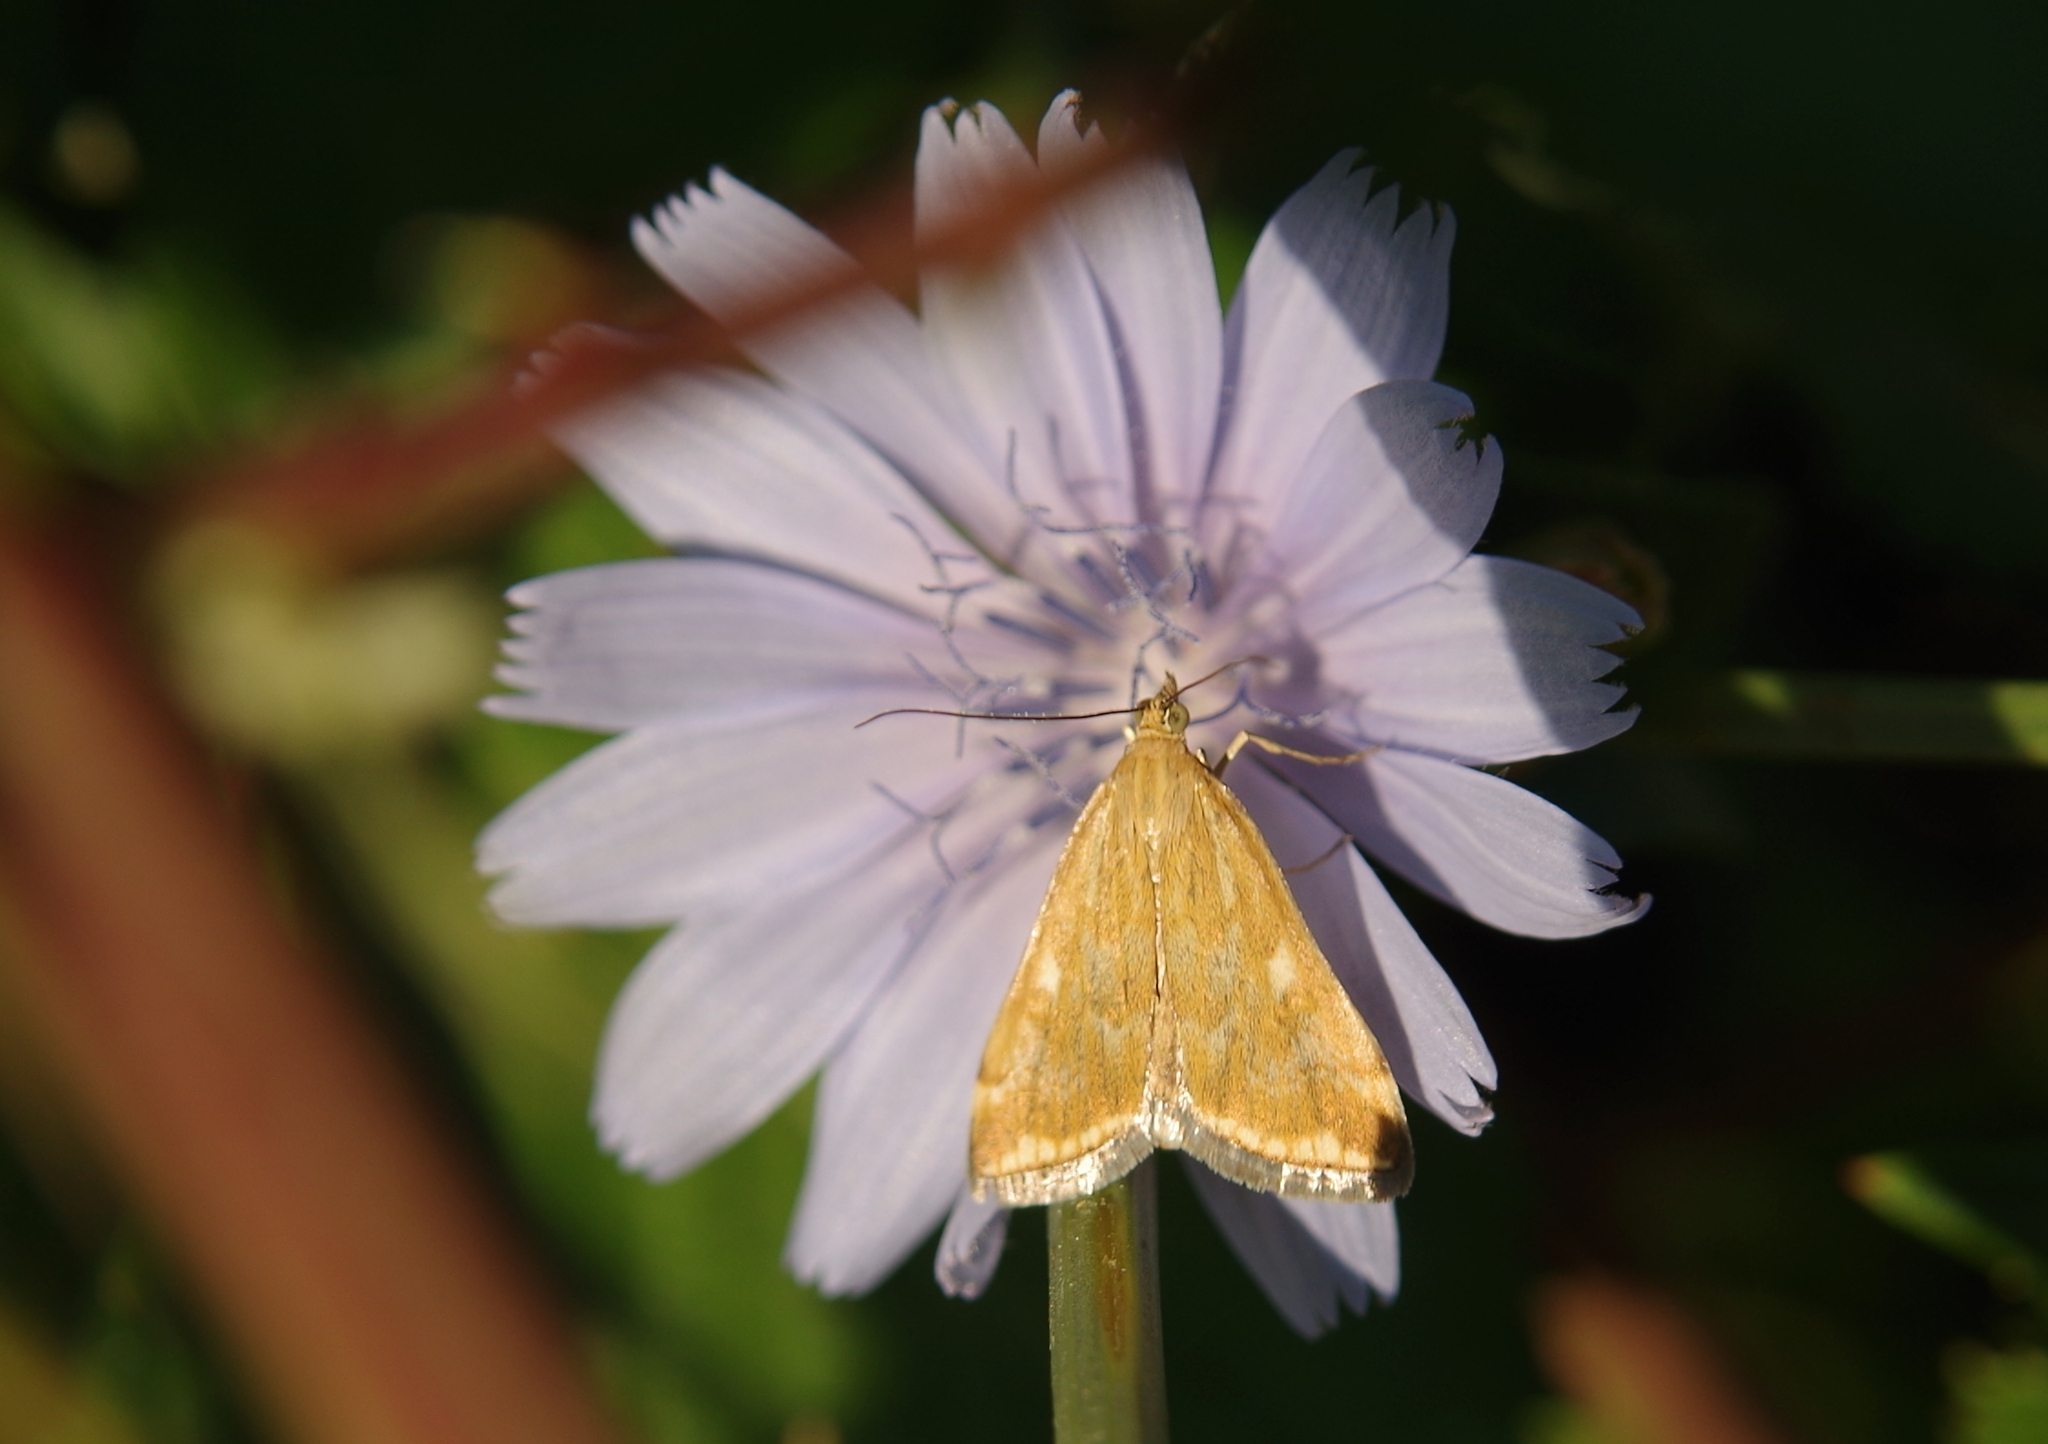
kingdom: Animalia
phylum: Arthropoda
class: Insecta
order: Lepidoptera
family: Crambidae
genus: Loxostege
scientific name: Loxostege sticticalis
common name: Crambid moth
